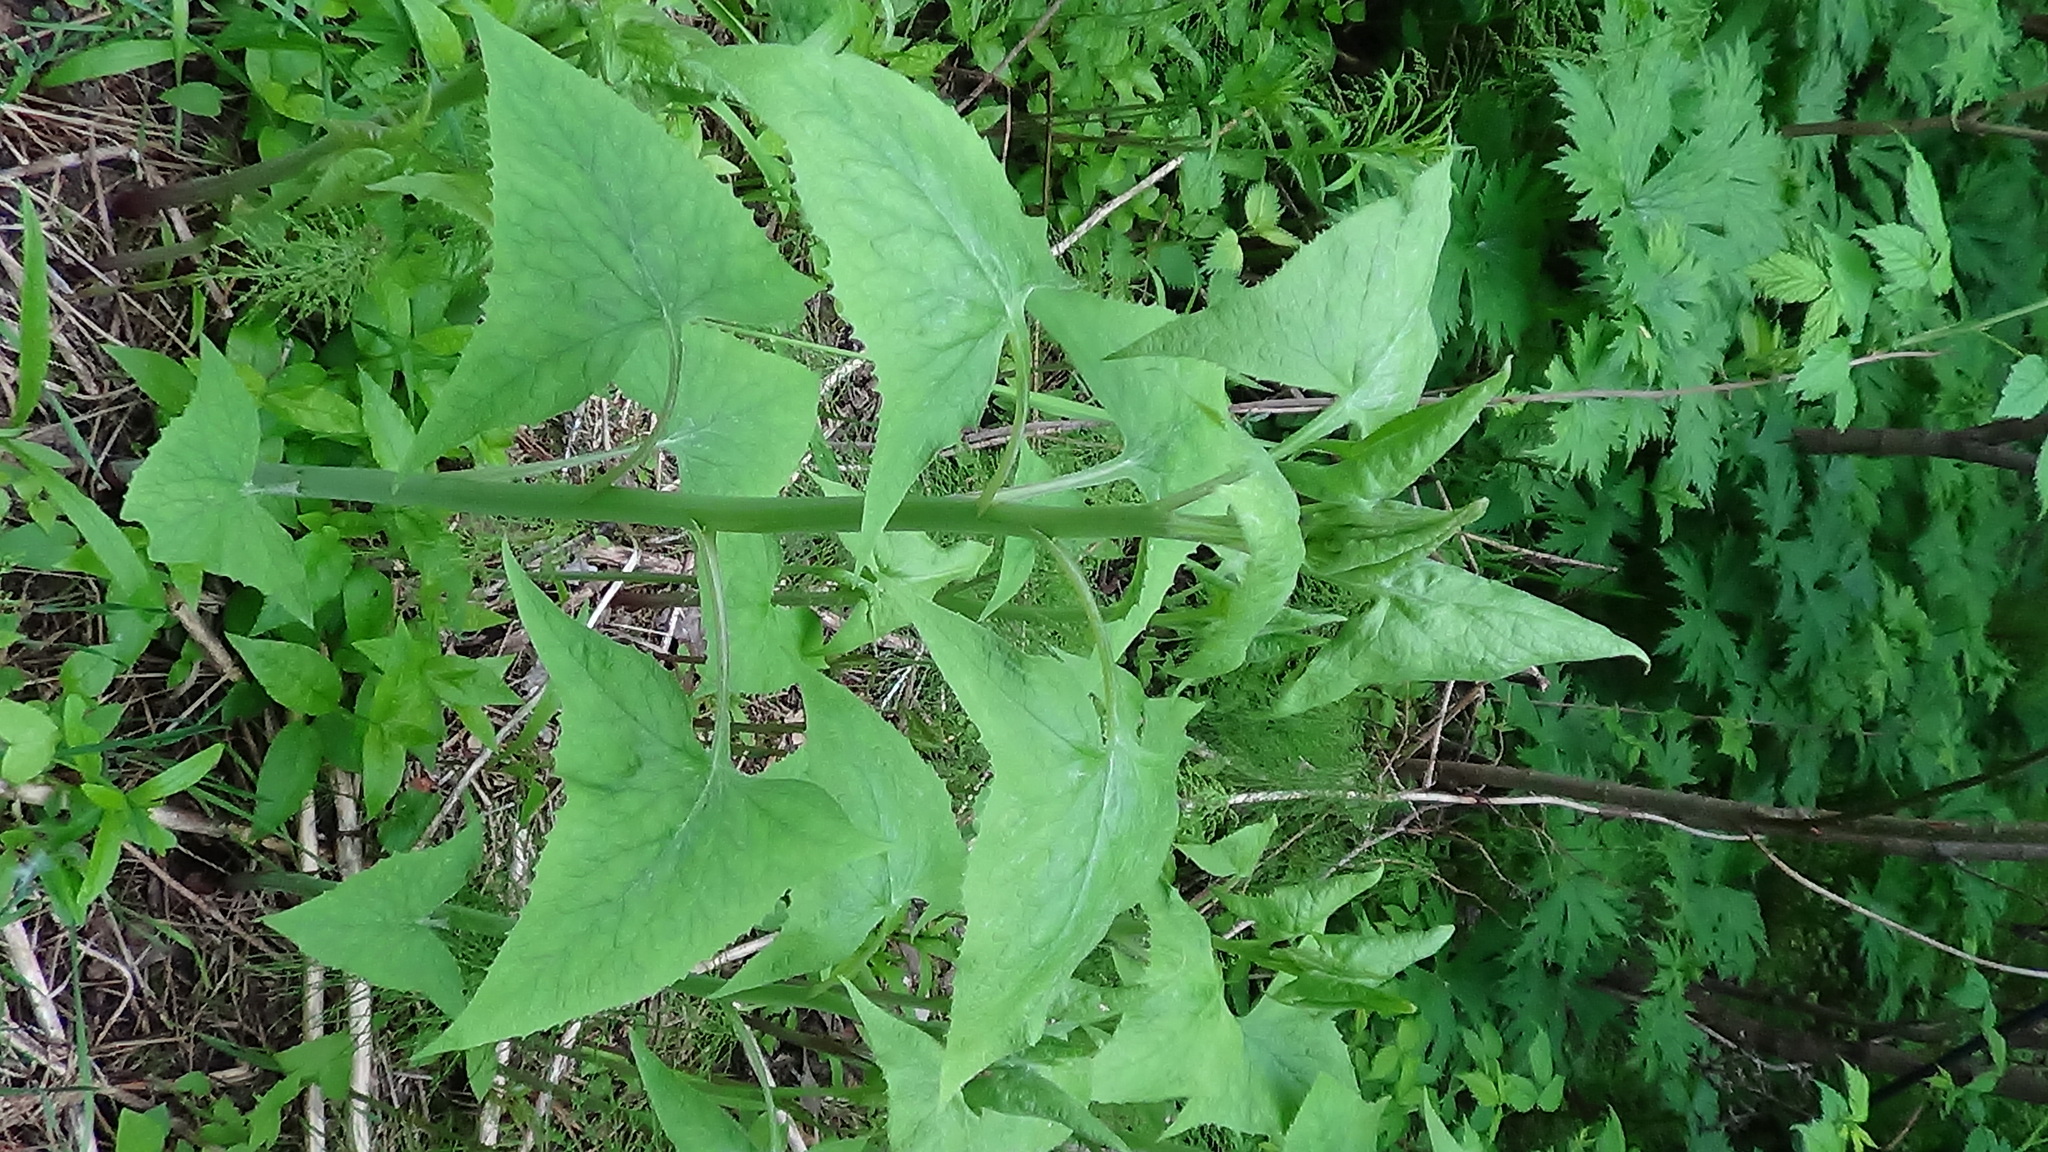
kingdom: Plantae
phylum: Tracheophyta
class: Magnoliopsida
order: Asterales
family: Asteraceae
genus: Parasenecio
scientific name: Parasenecio hastatus
